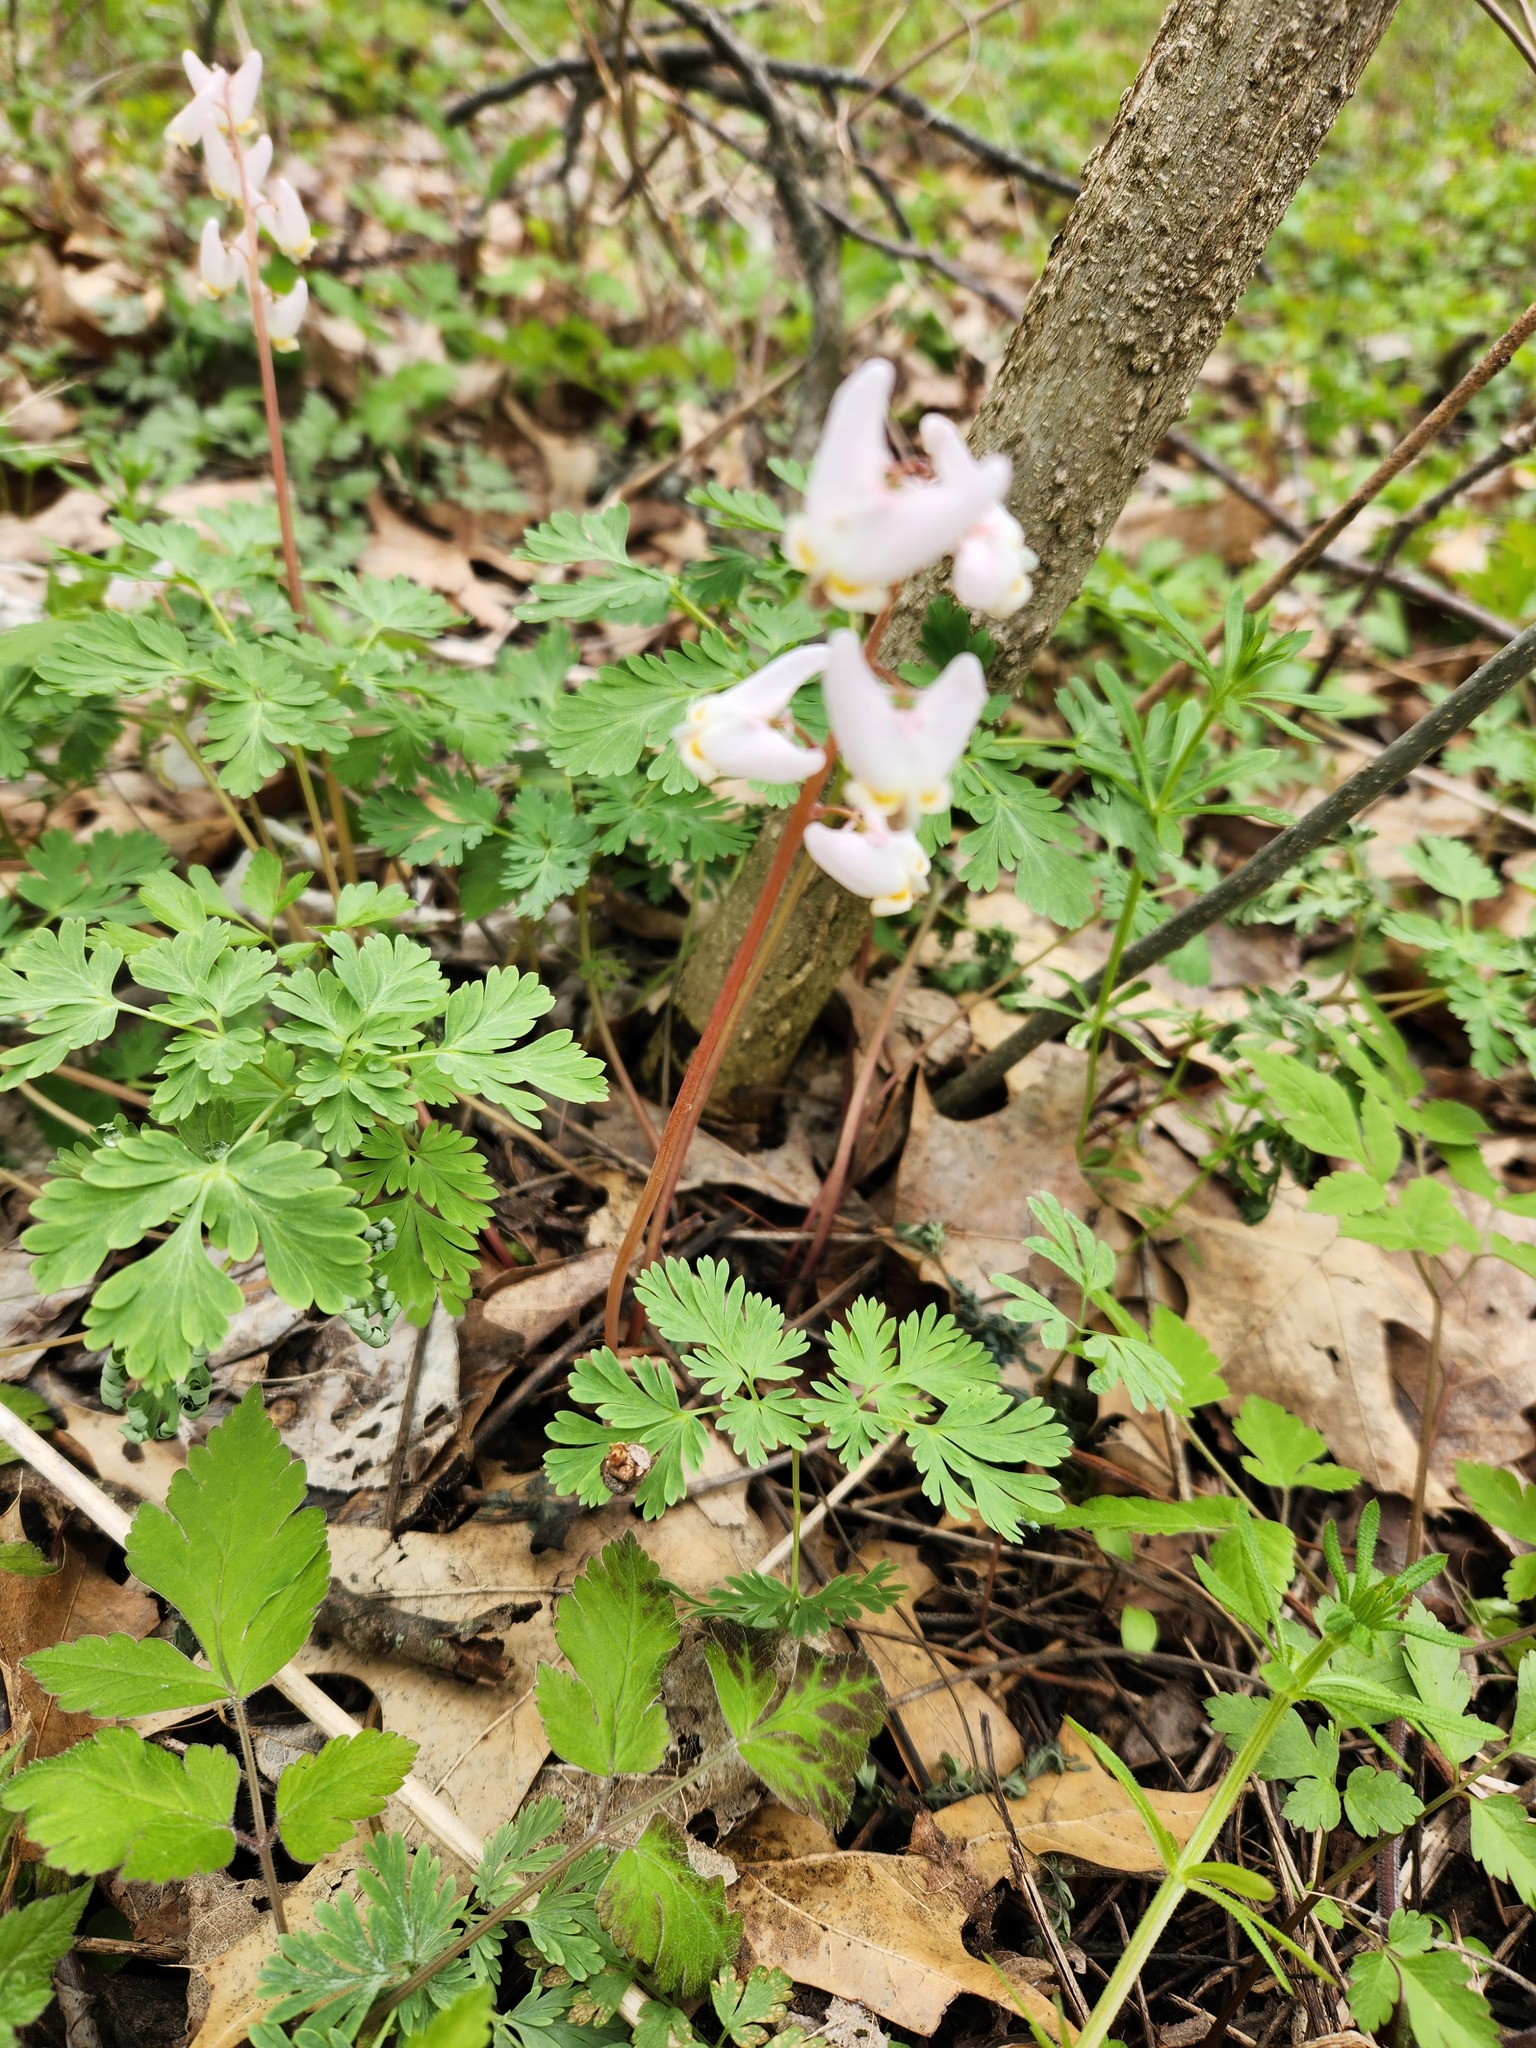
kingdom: Plantae
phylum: Tracheophyta
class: Magnoliopsida
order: Ranunculales
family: Papaveraceae
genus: Dicentra
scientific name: Dicentra cucullaria
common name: Dutchman's breeches
